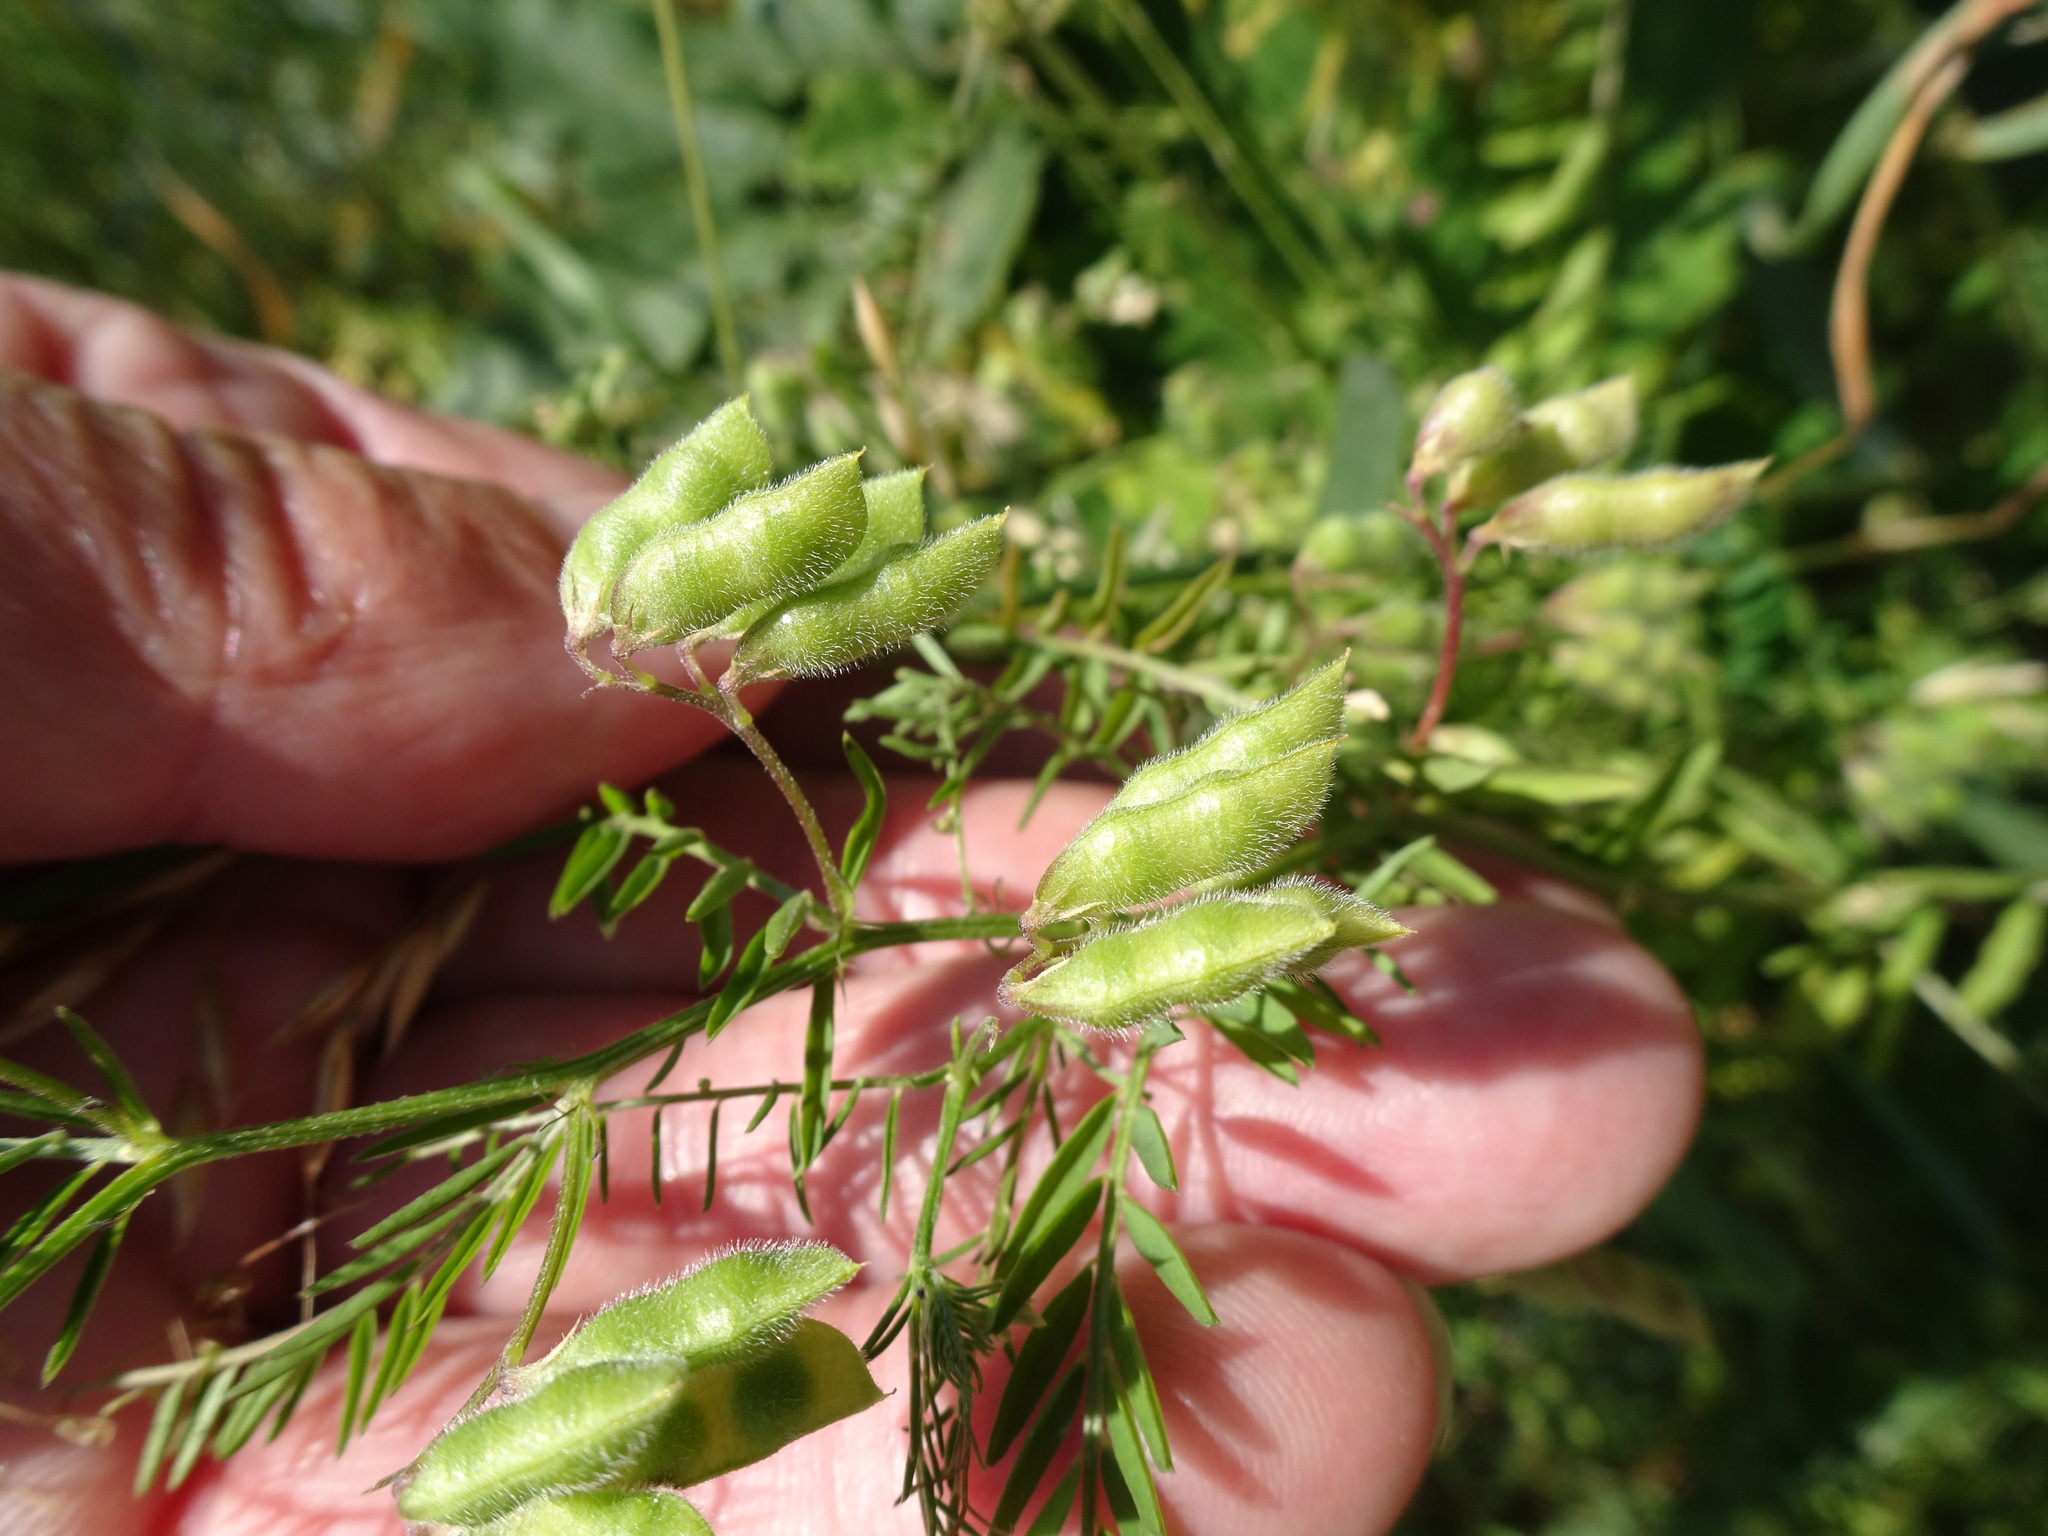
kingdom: Plantae
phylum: Tracheophyta
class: Magnoliopsida
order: Fabales
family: Fabaceae
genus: Vicia
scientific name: Vicia hirsuta
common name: Tiny vetch
